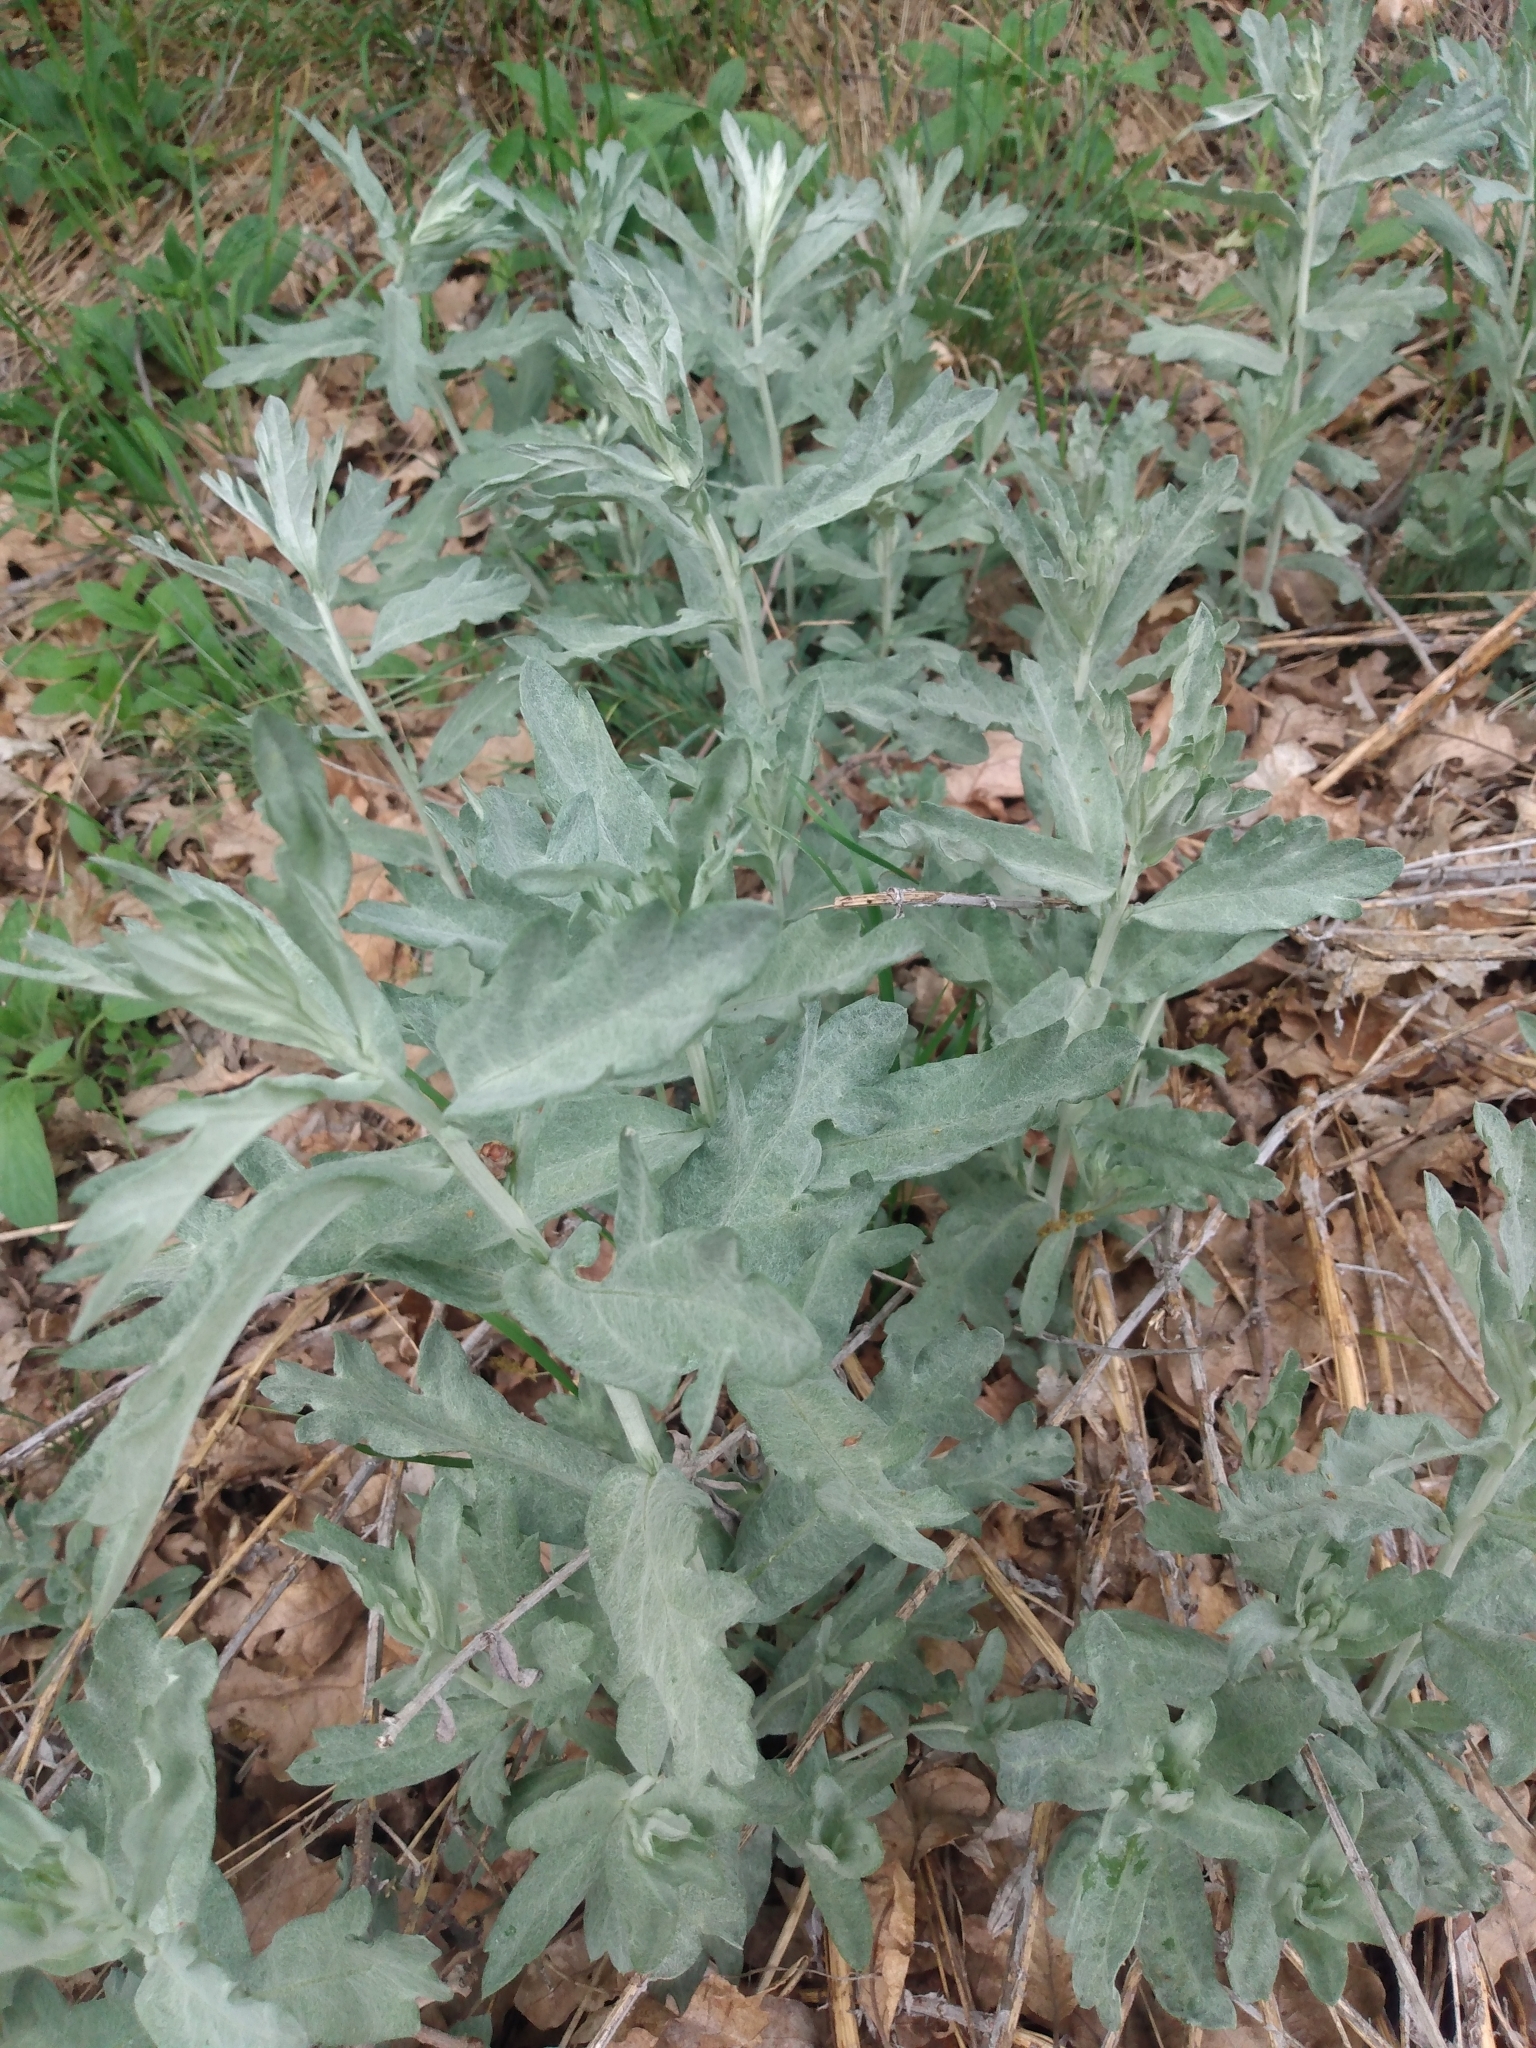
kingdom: Plantae
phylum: Tracheophyta
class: Magnoliopsida
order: Asterales
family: Asteraceae
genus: Artemisia
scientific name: Artemisia ludoviciana
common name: Western mugwort
